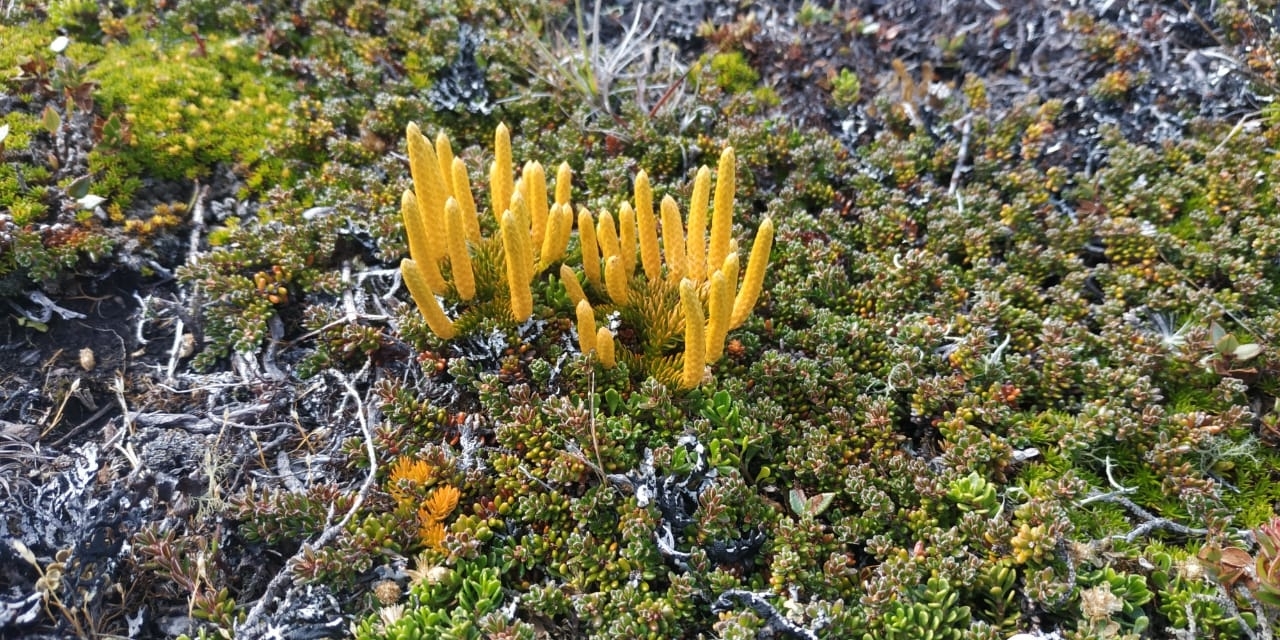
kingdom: Plantae
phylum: Tracheophyta
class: Lycopodiopsida
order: Lycopodiales
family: Lycopodiaceae
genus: Austrolycopodium
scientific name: Austrolycopodium confertum
